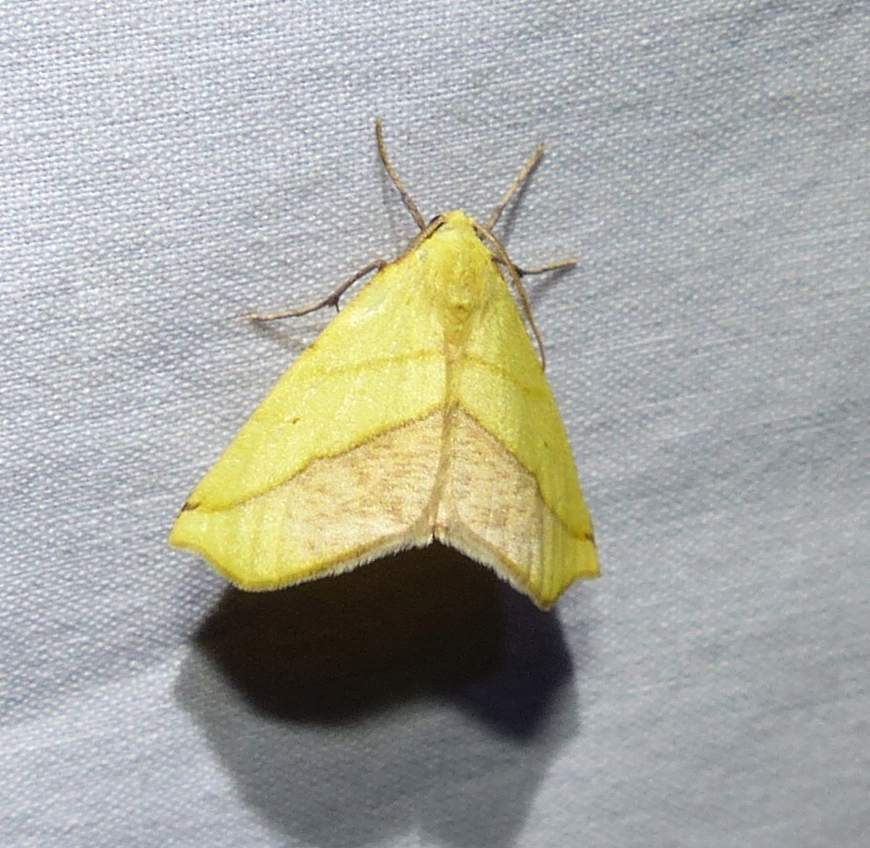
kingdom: Animalia
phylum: Arthropoda
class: Insecta
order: Lepidoptera
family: Geometridae
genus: Sicya
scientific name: Sicya macularia
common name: Sharp-lined yellow
